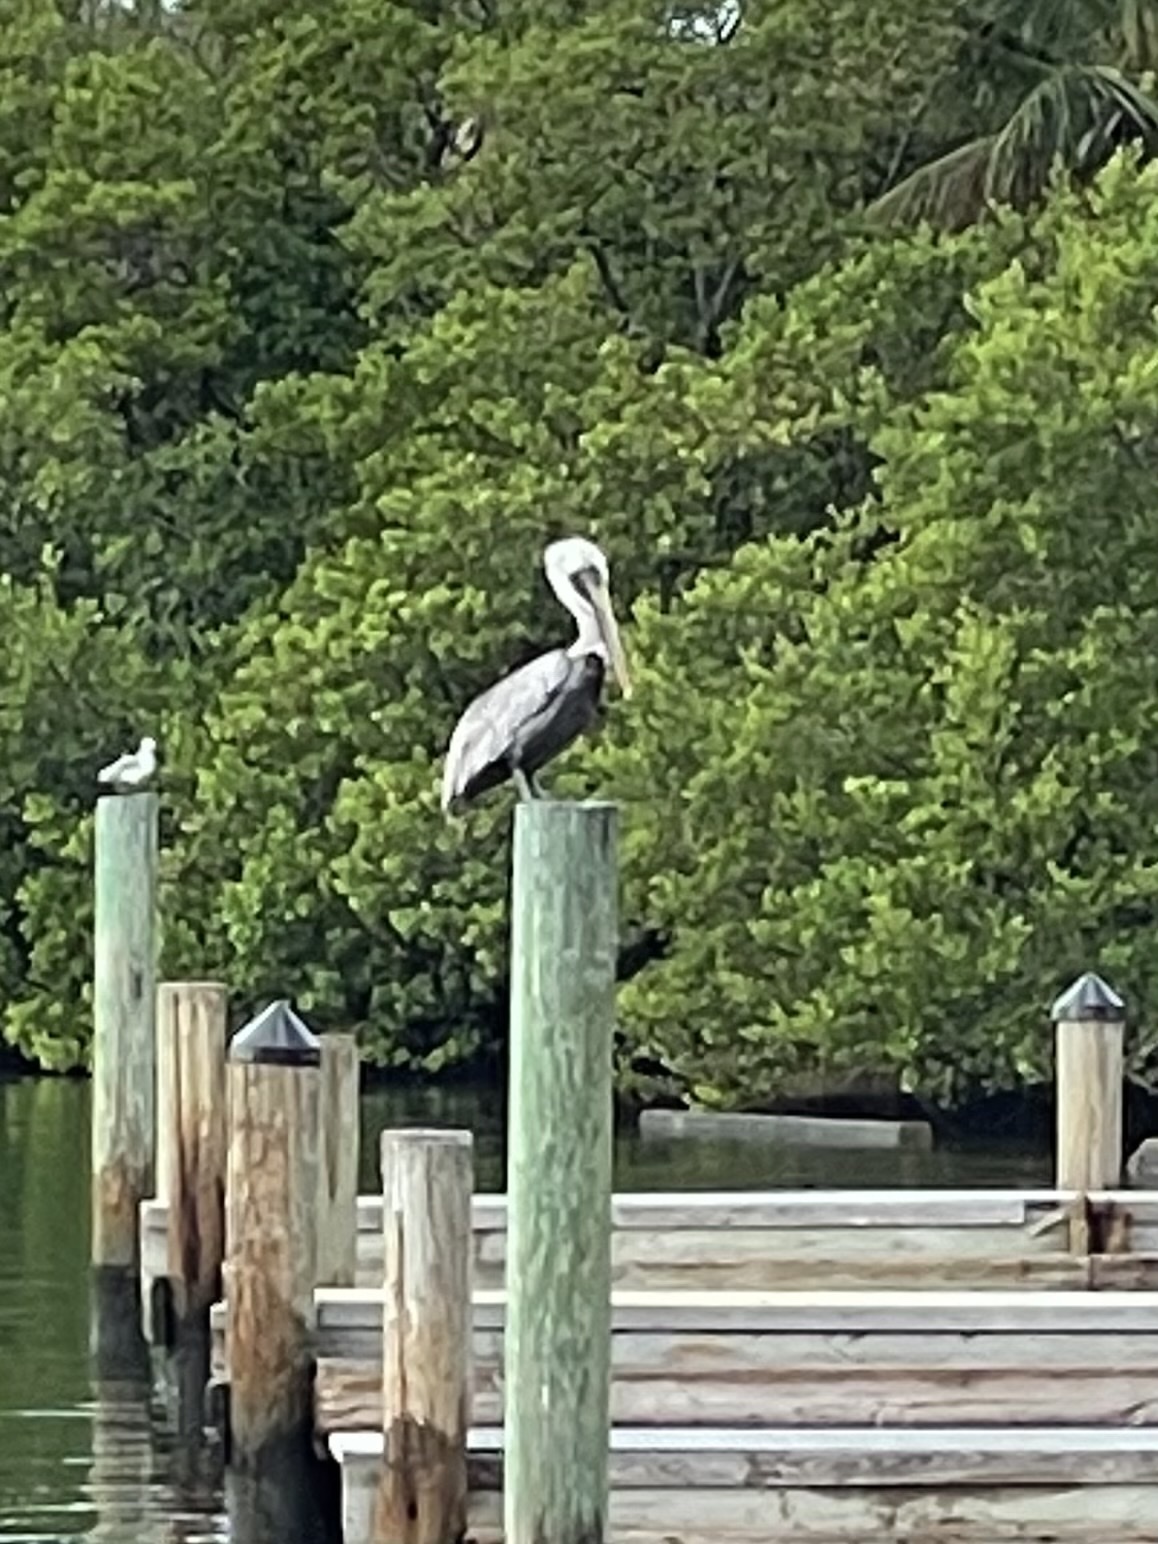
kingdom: Animalia
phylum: Chordata
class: Aves
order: Pelecaniformes
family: Pelecanidae
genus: Pelecanus
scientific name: Pelecanus occidentalis
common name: Brown pelican
